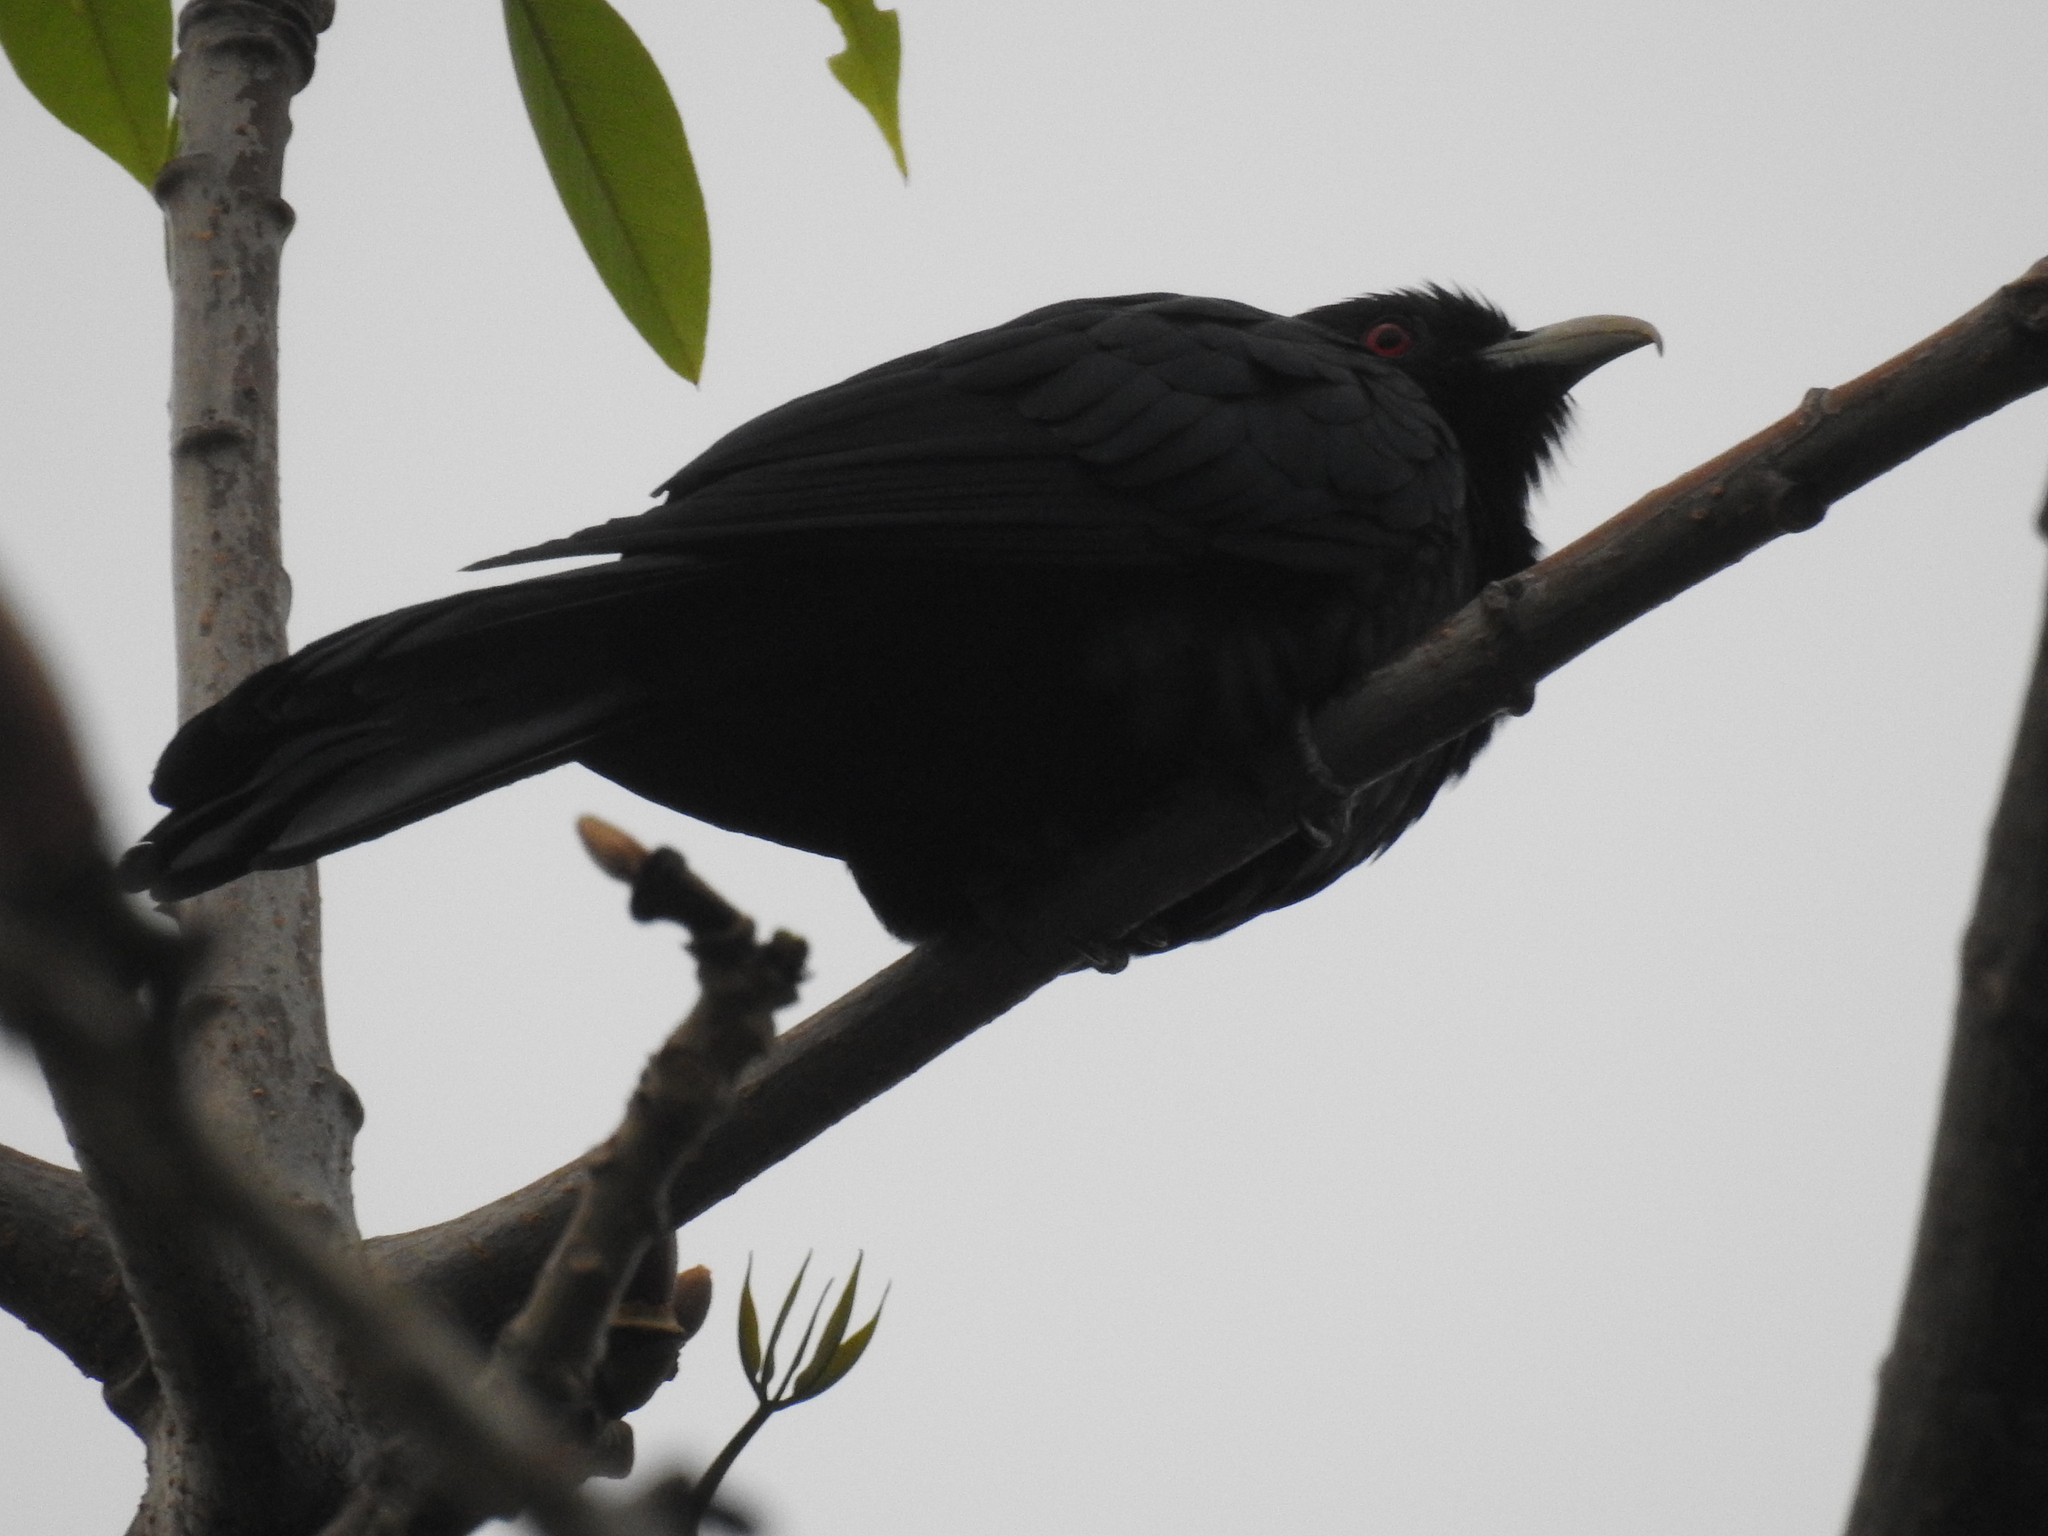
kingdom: Animalia
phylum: Chordata
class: Aves
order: Cuculiformes
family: Cuculidae
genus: Eudynamys
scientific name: Eudynamys scolopaceus
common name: Asian koel
